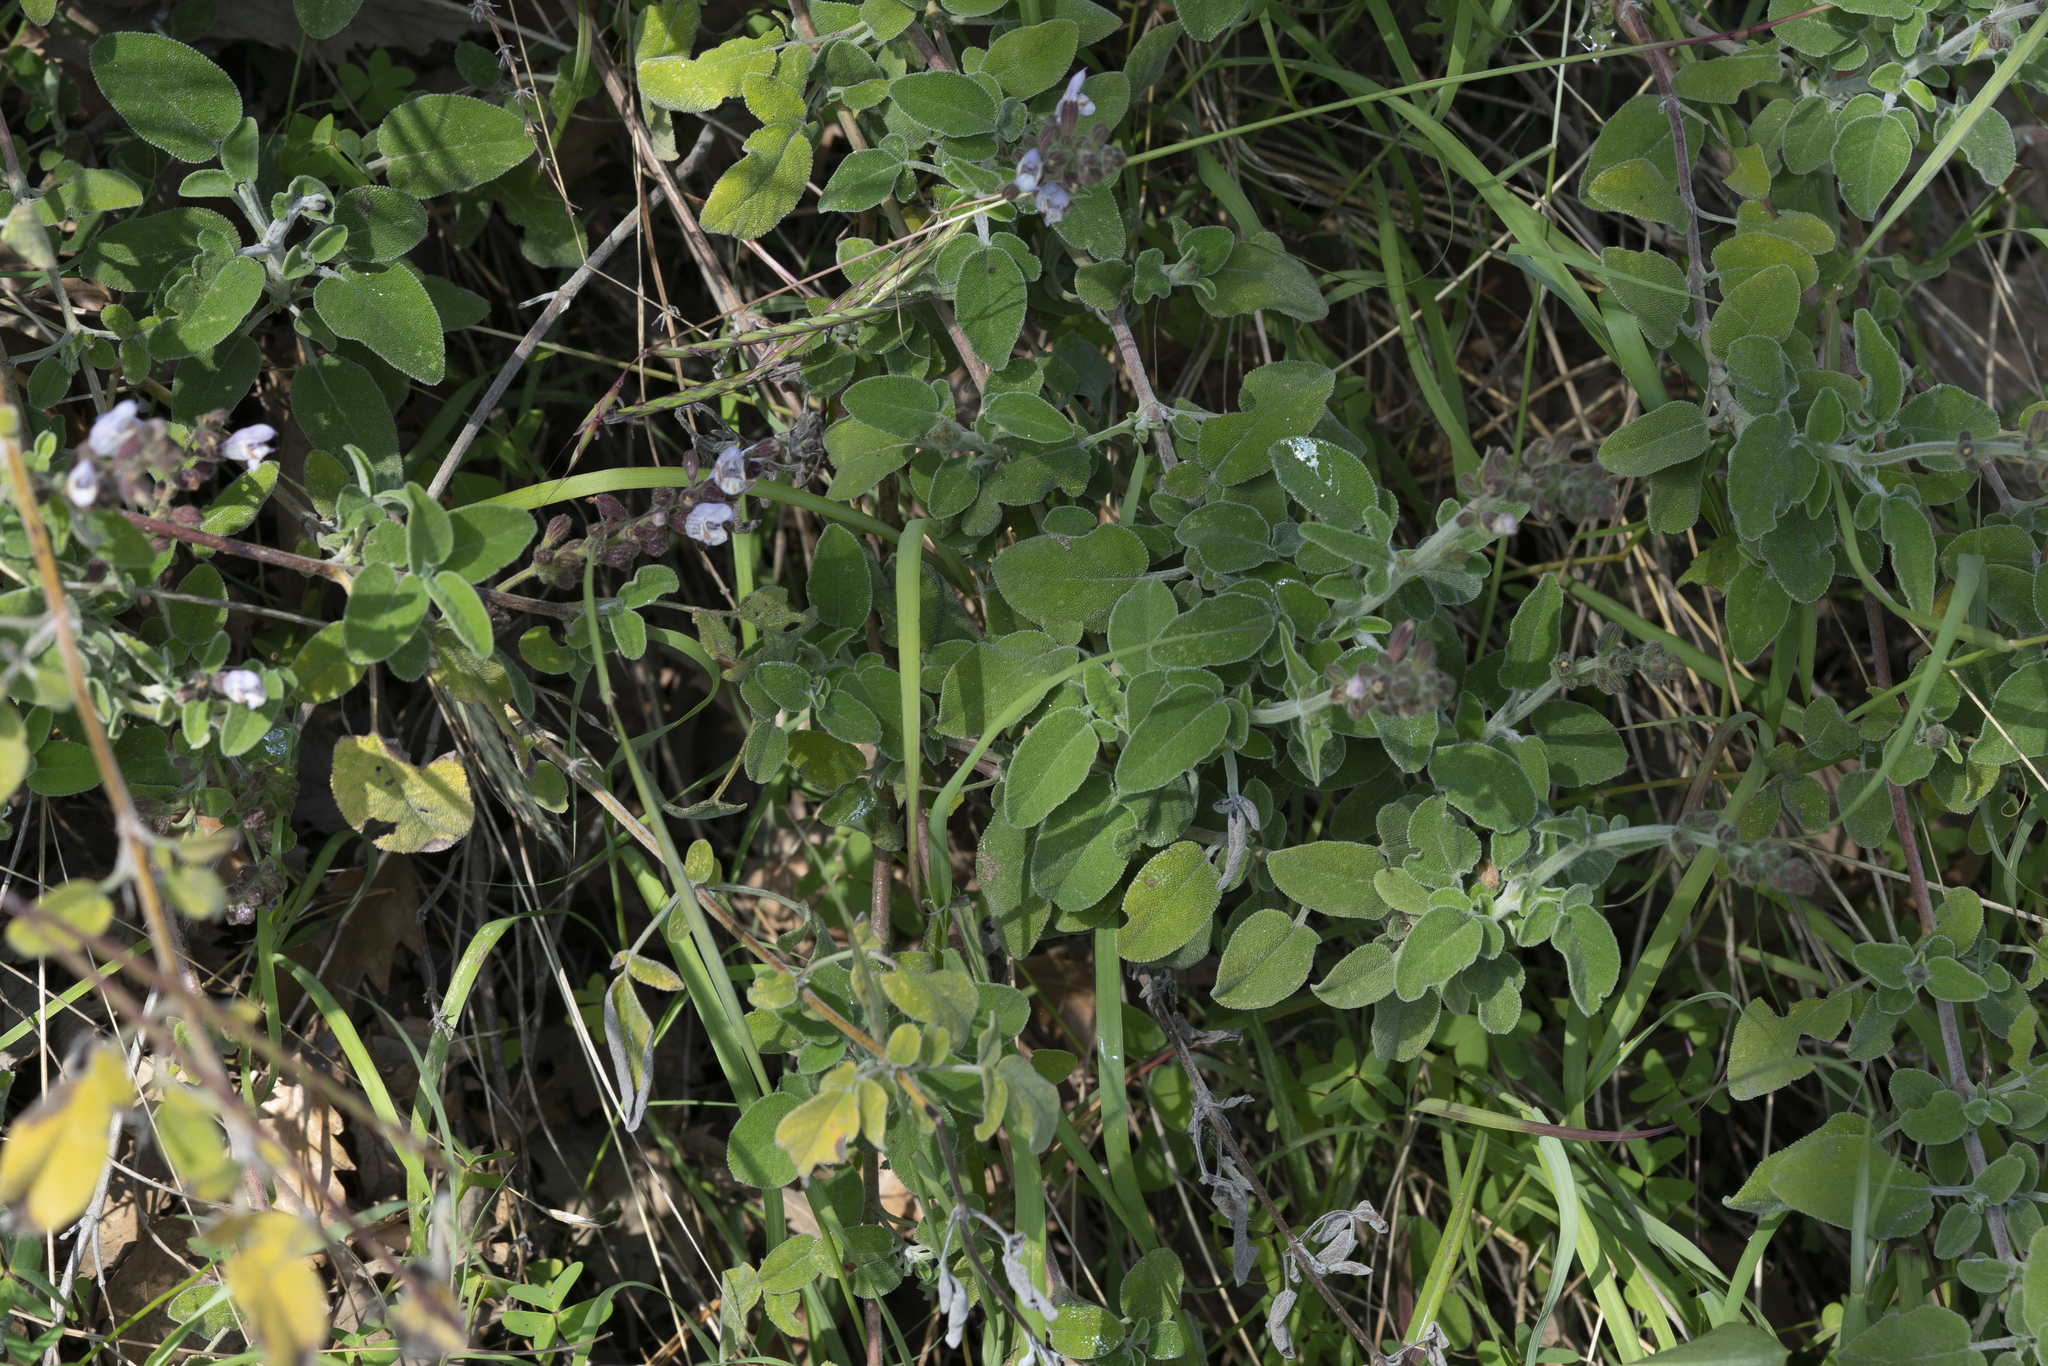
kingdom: Plantae
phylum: Tracheophyta
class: Magnoliopsida
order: Lamiales
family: Lamiaceae
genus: Salvia
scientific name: Salvia fruticosa
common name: Greek sage
